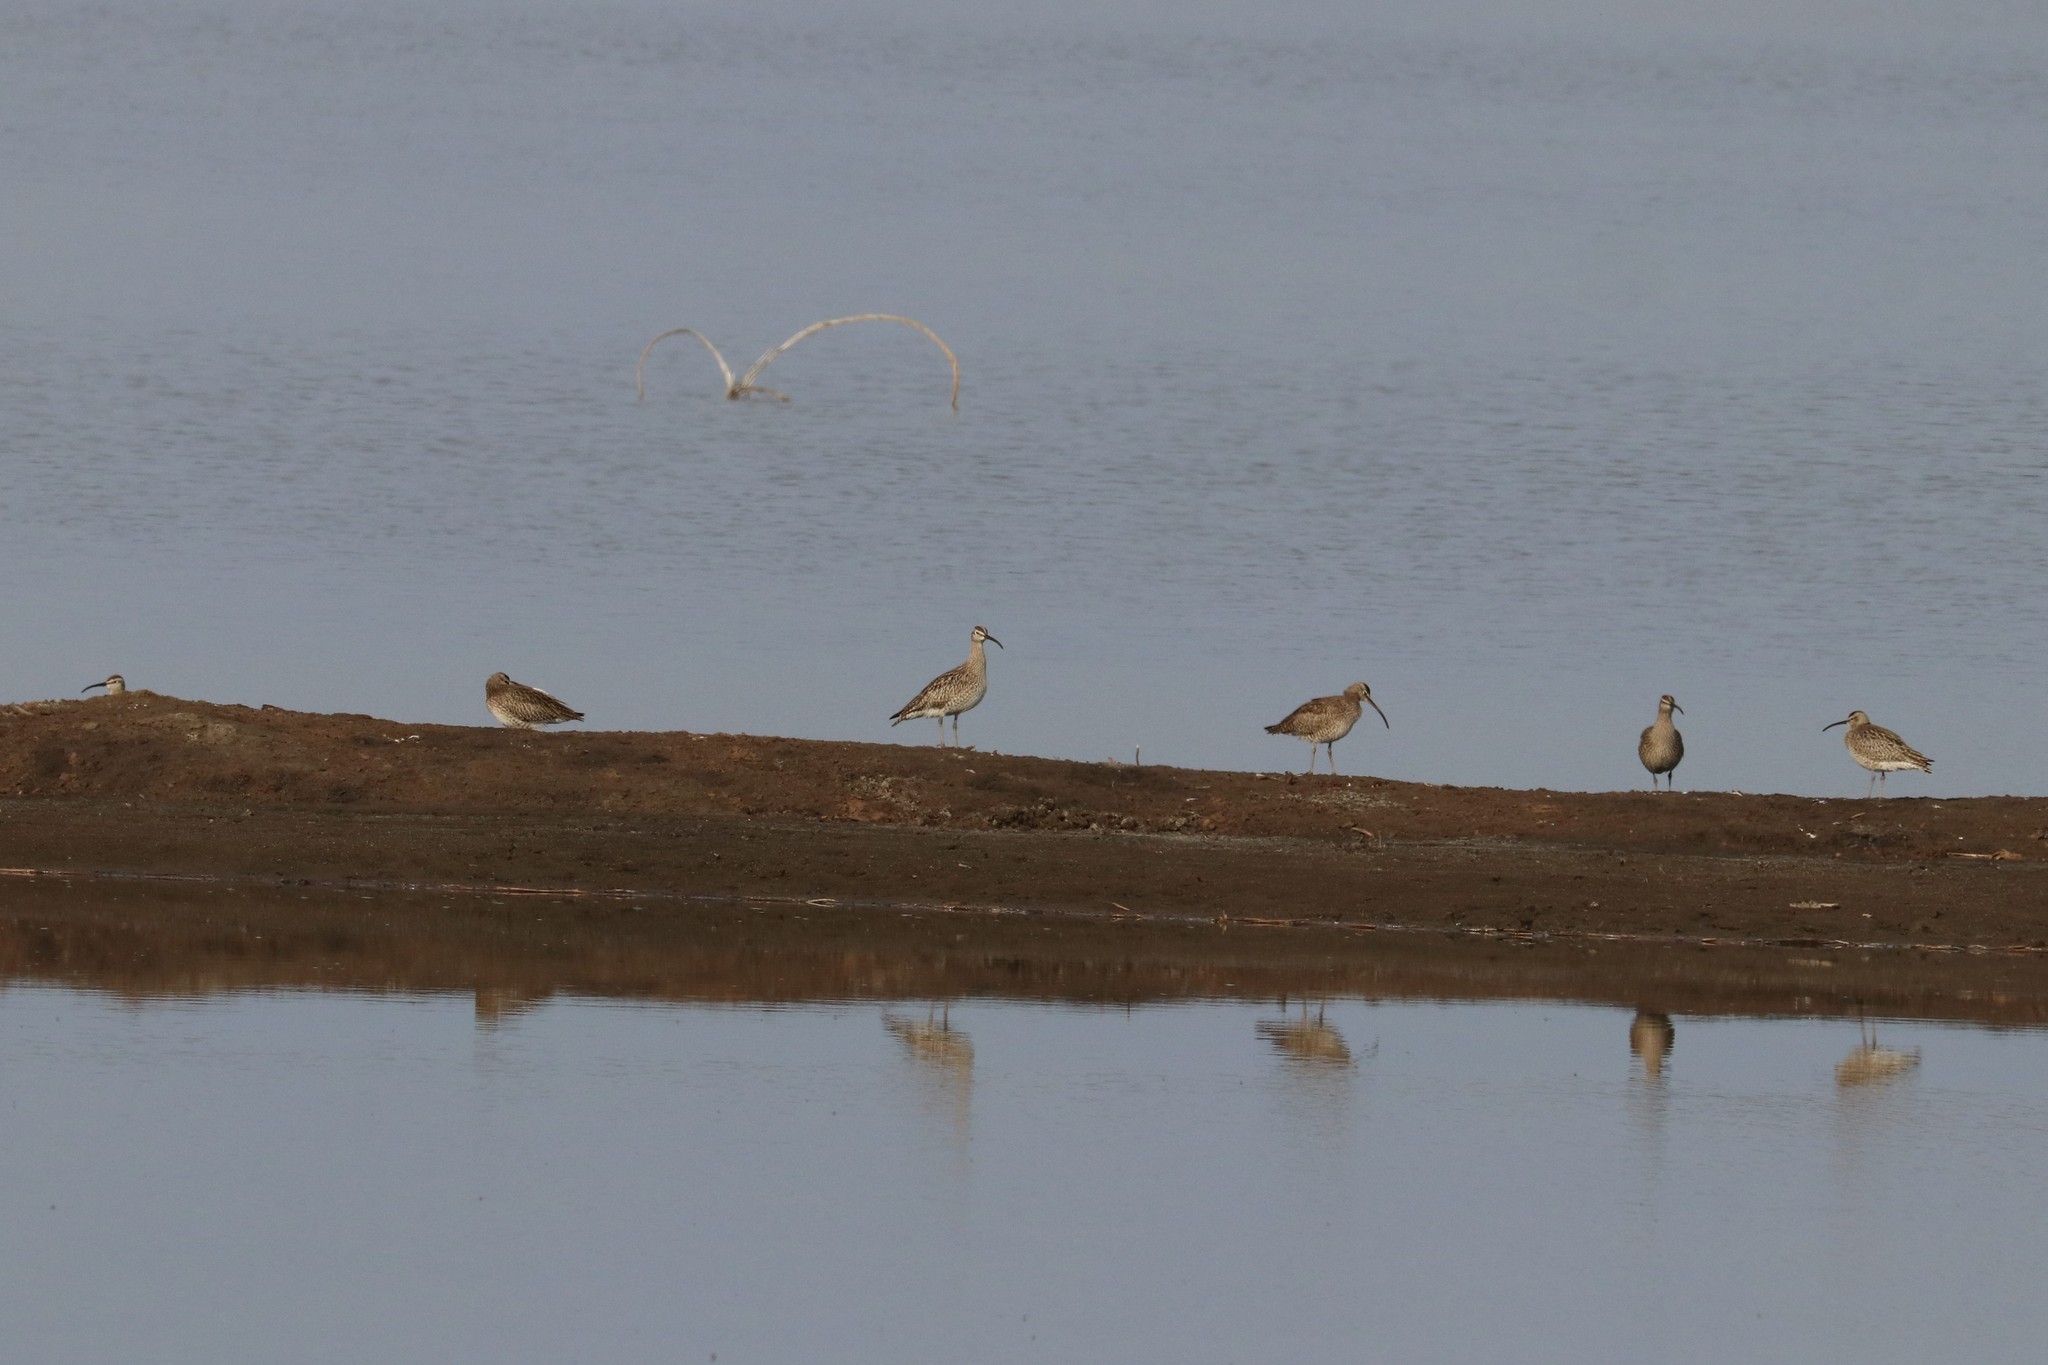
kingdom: Animalia
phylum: Chordata
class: Aves
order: Charadriiformes
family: Scolopacidae
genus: Numenius
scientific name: Numenius phaeopus
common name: Whimbrel
